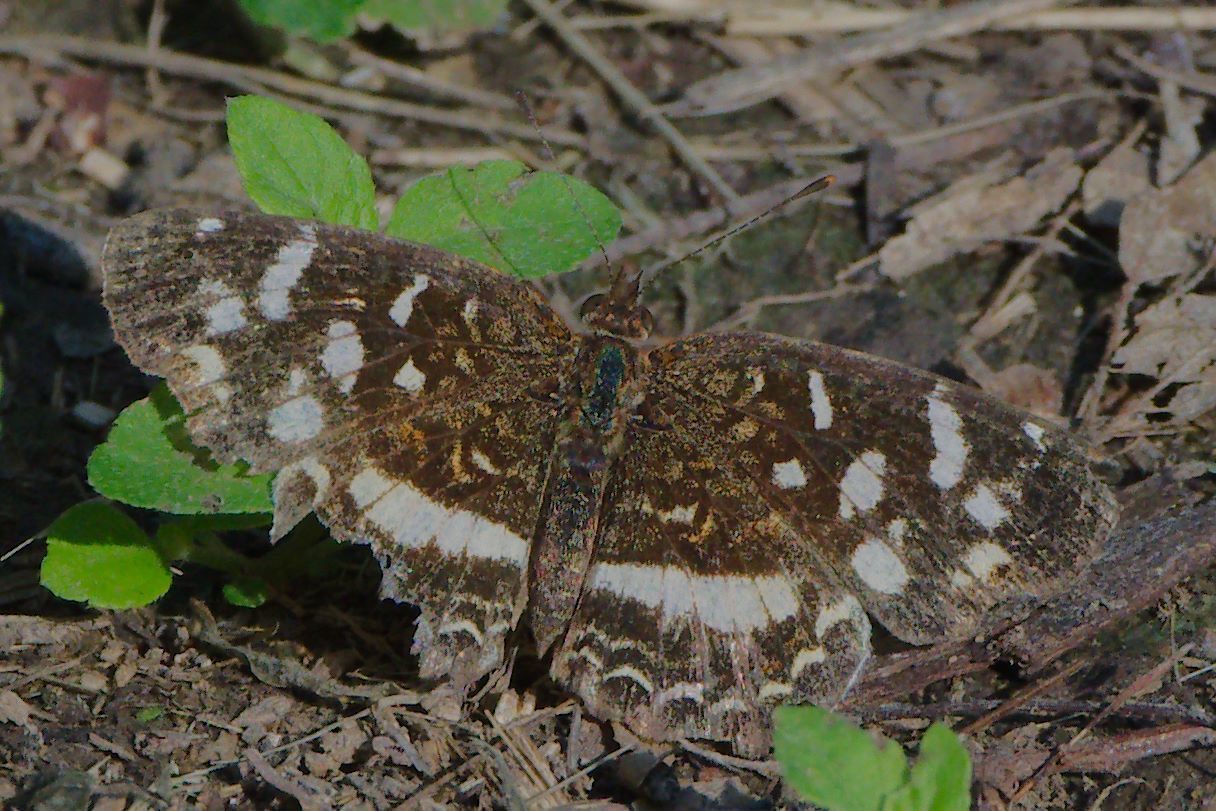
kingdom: Animalia
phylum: Arthropoda
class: Insecta
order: Lepidoptera
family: Nymphalidae
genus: Anthanassa
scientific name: Anthanassa tulcis
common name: Pale-banded crescent
